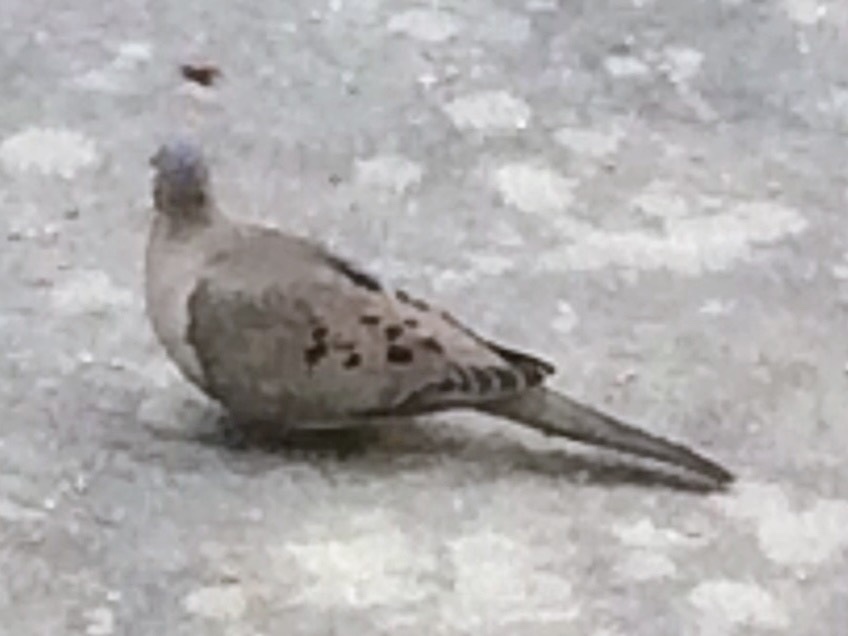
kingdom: Animalia
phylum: Chordata
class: Aves
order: Columbiformes
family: Columbidae
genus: Zenaida
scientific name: Zenaida macroura
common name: Mourning dove
